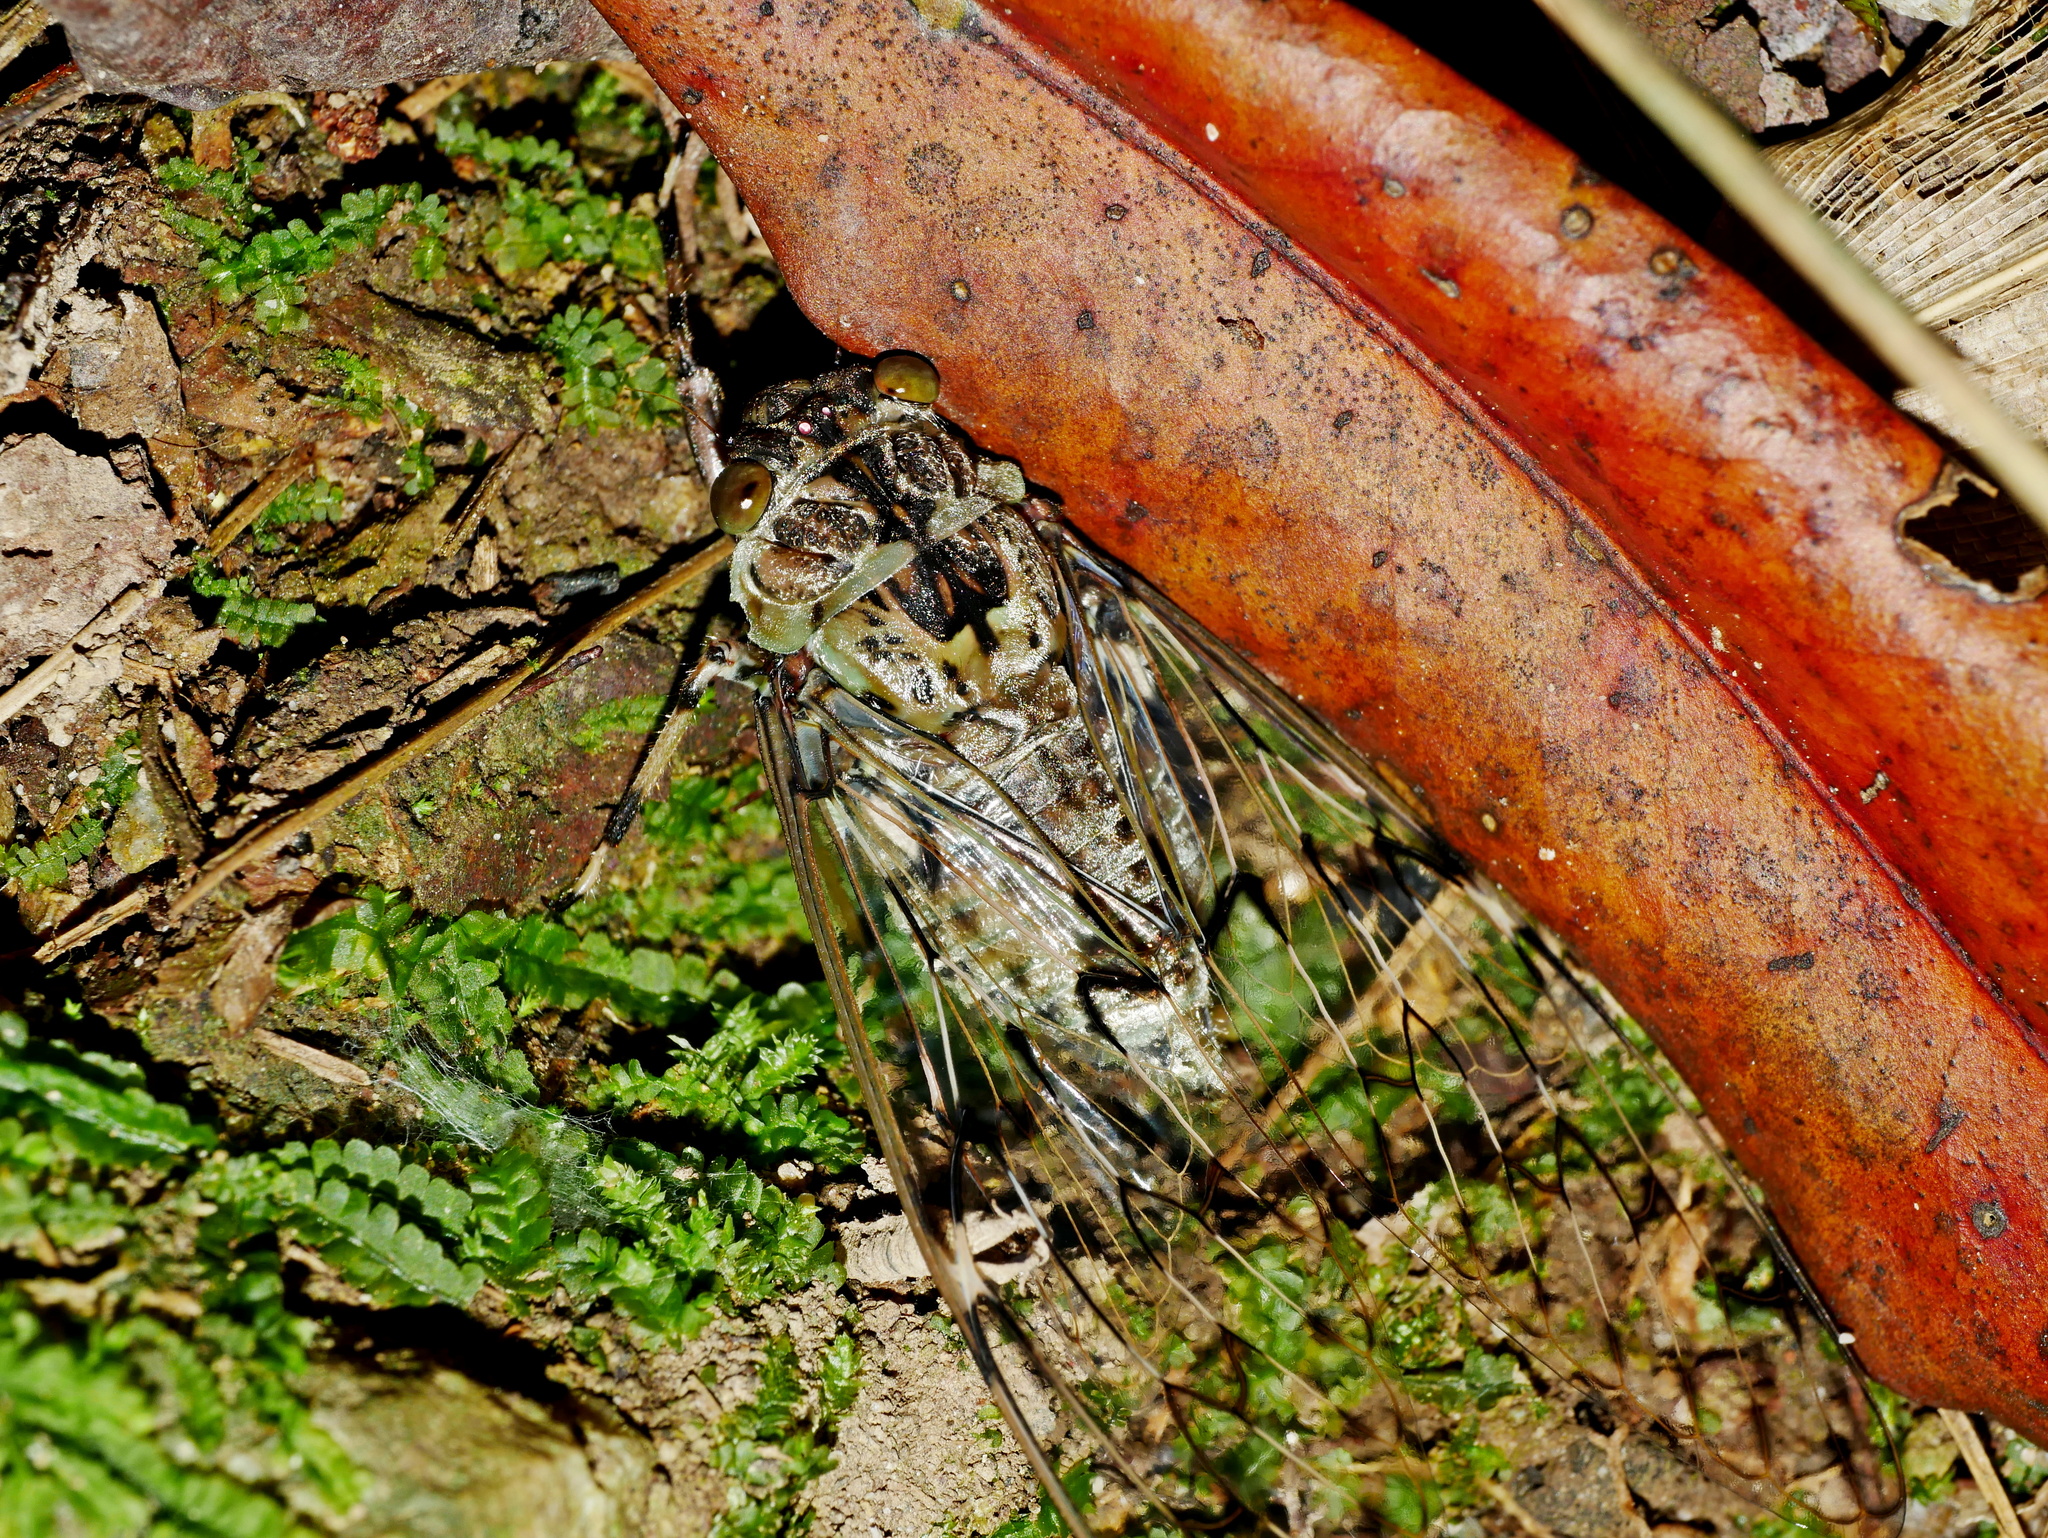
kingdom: Animalia
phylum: Arthropoda
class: Insecta
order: Hemiptera
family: Cicadidae
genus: Semia
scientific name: Semia watanabei
